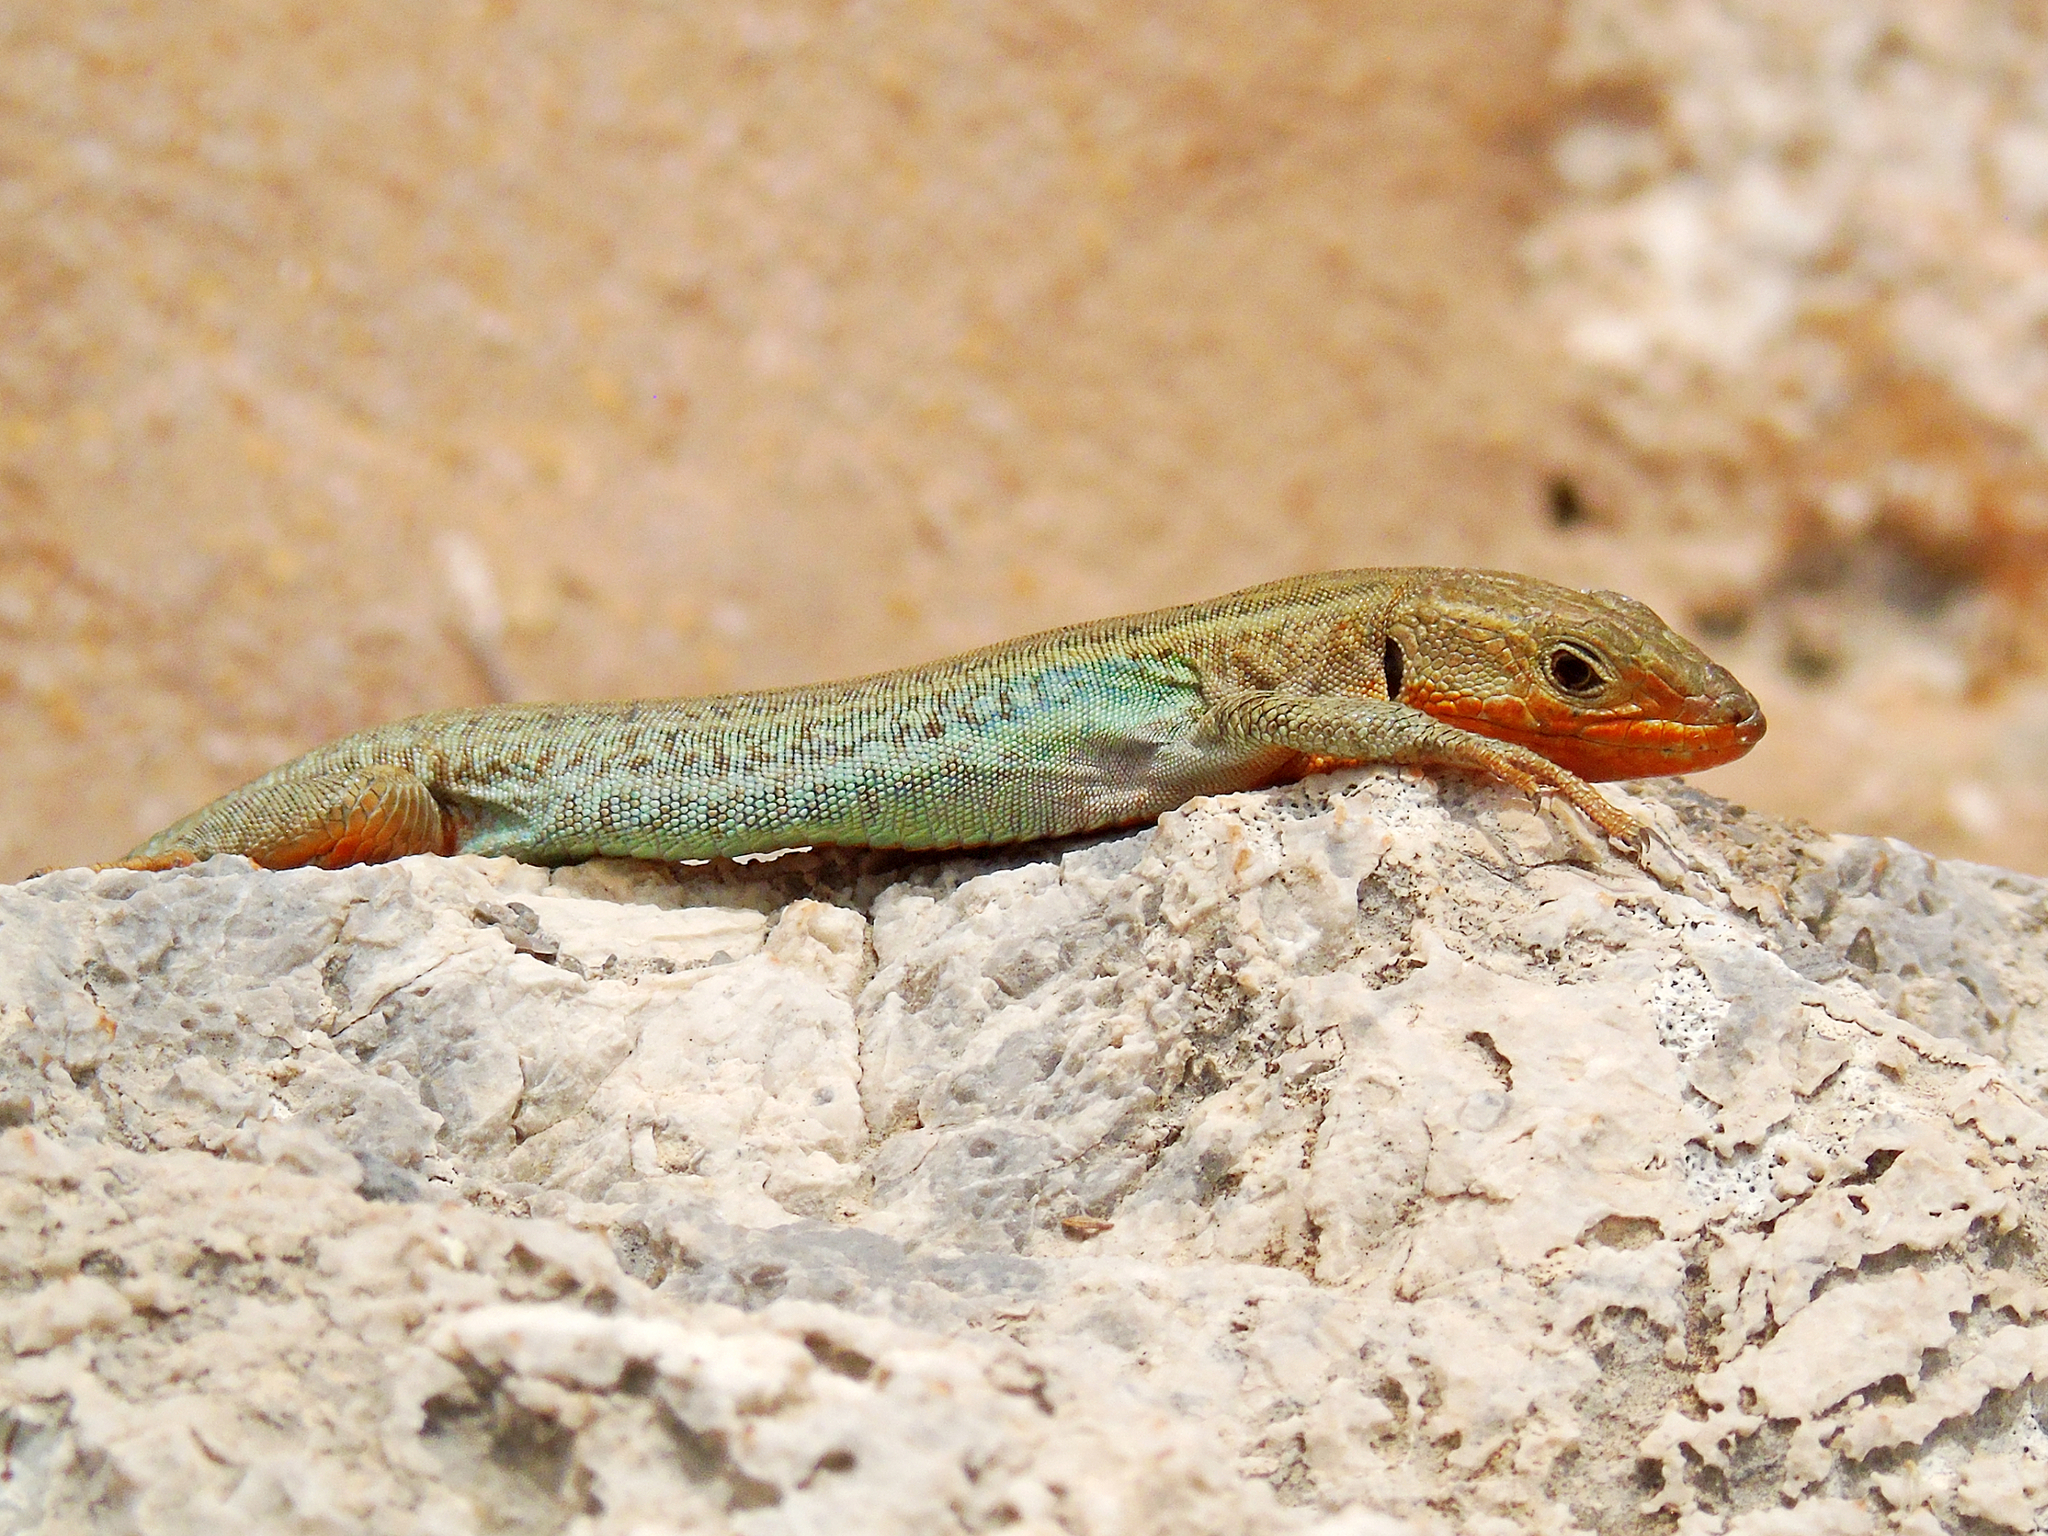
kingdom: Animalia
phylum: Chordata
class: Squamata
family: Lacertidae
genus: Podarcis
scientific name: Podarcis peloponnesiacus
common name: Peloponnese wall lizard
